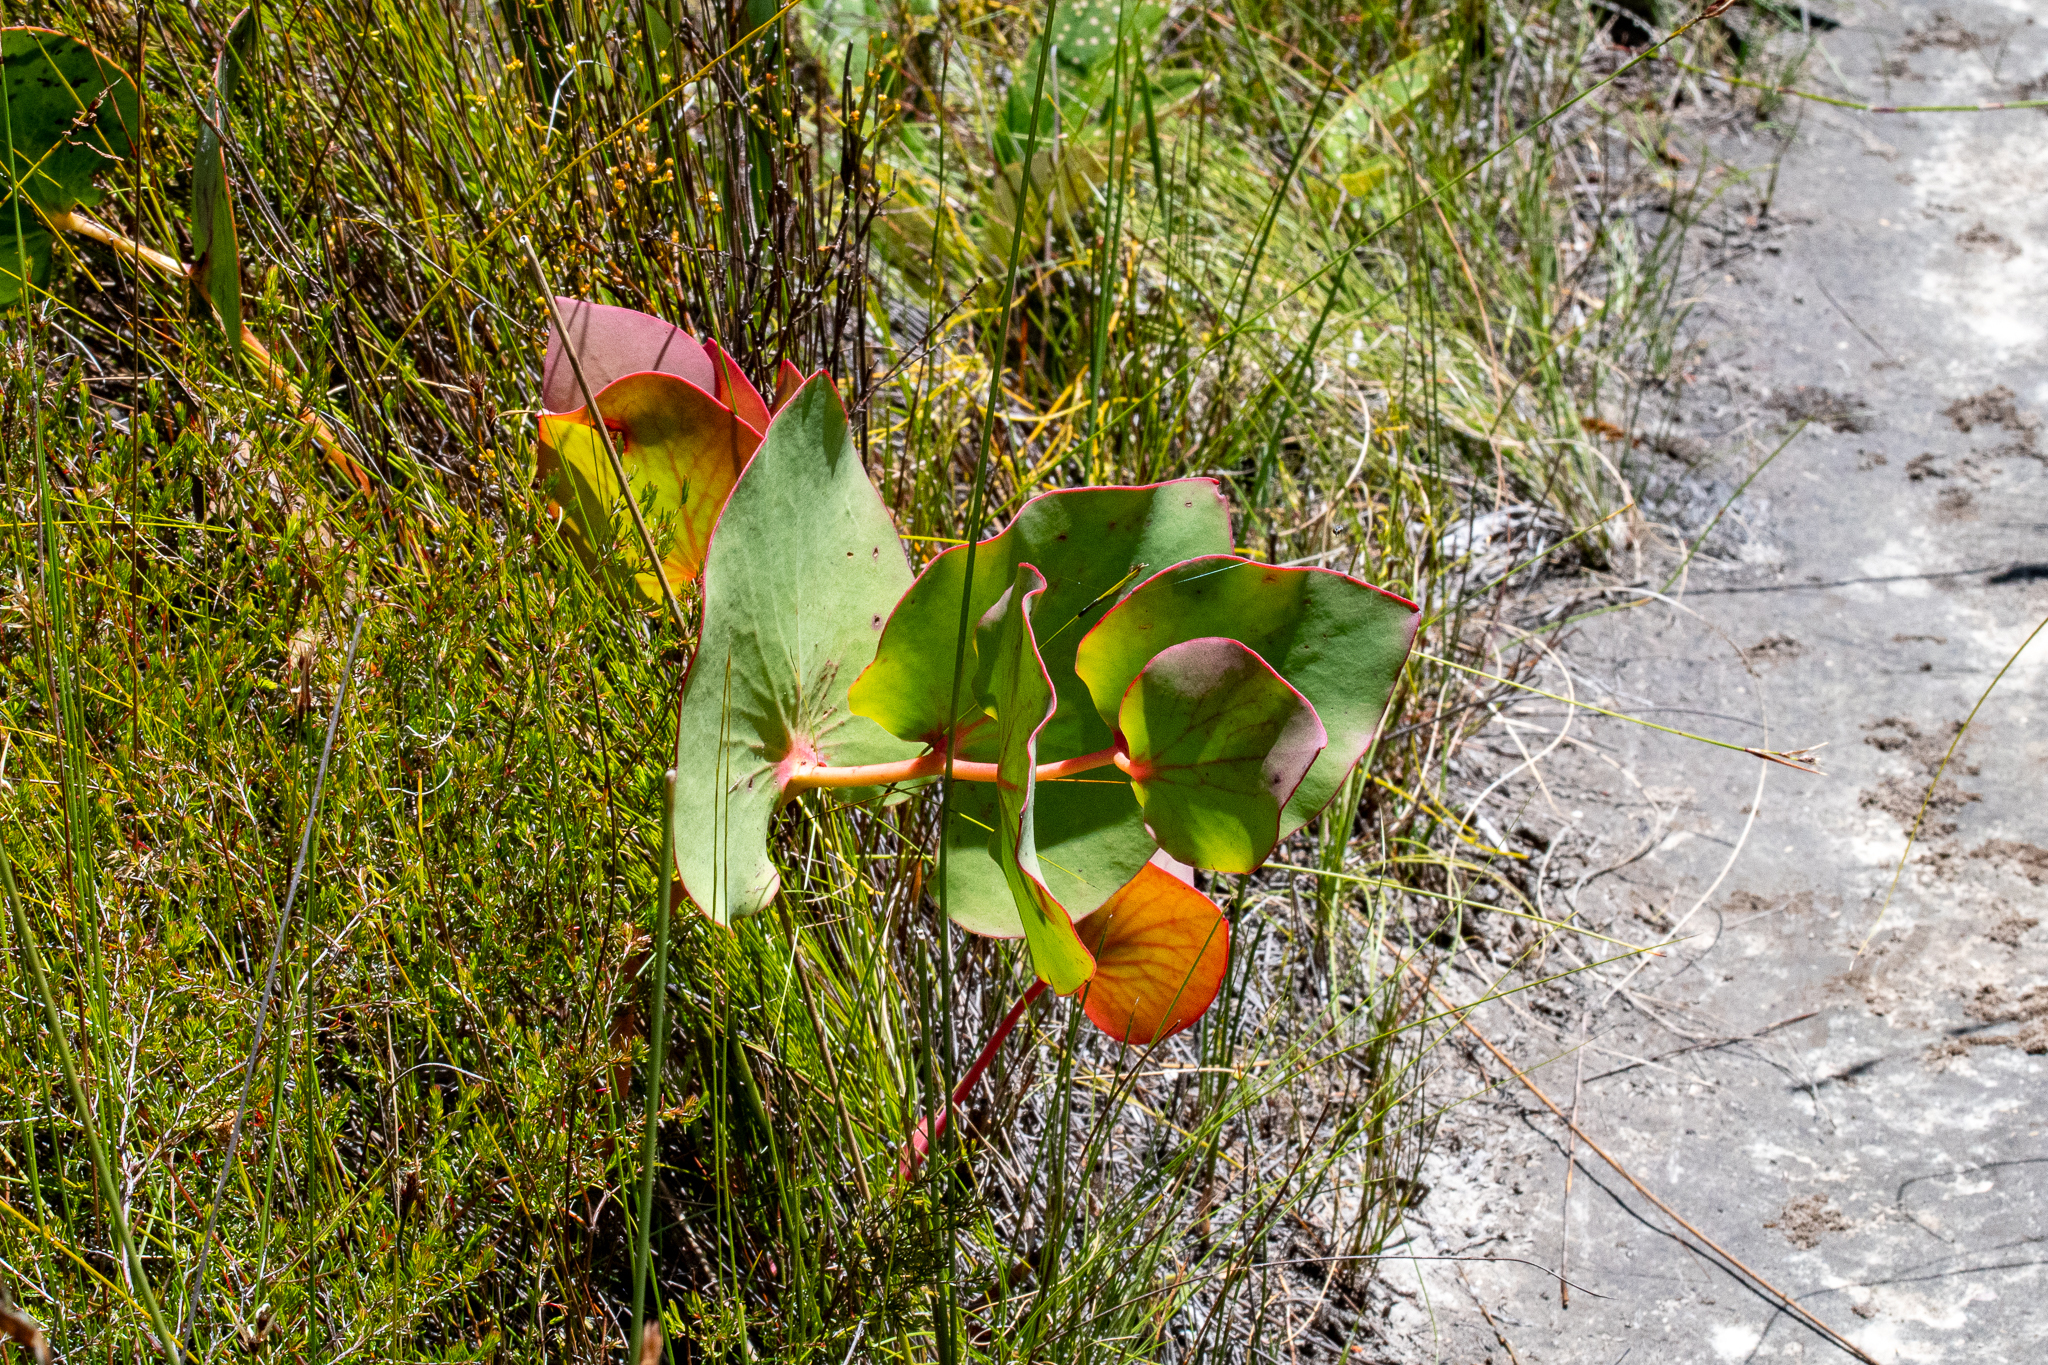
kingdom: Plantae
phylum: Tracheophyta
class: Magnoliopsida
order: Proteales
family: Proteaceae
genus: Protea
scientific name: Protea cordata
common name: Heart-leaf sugarbush
